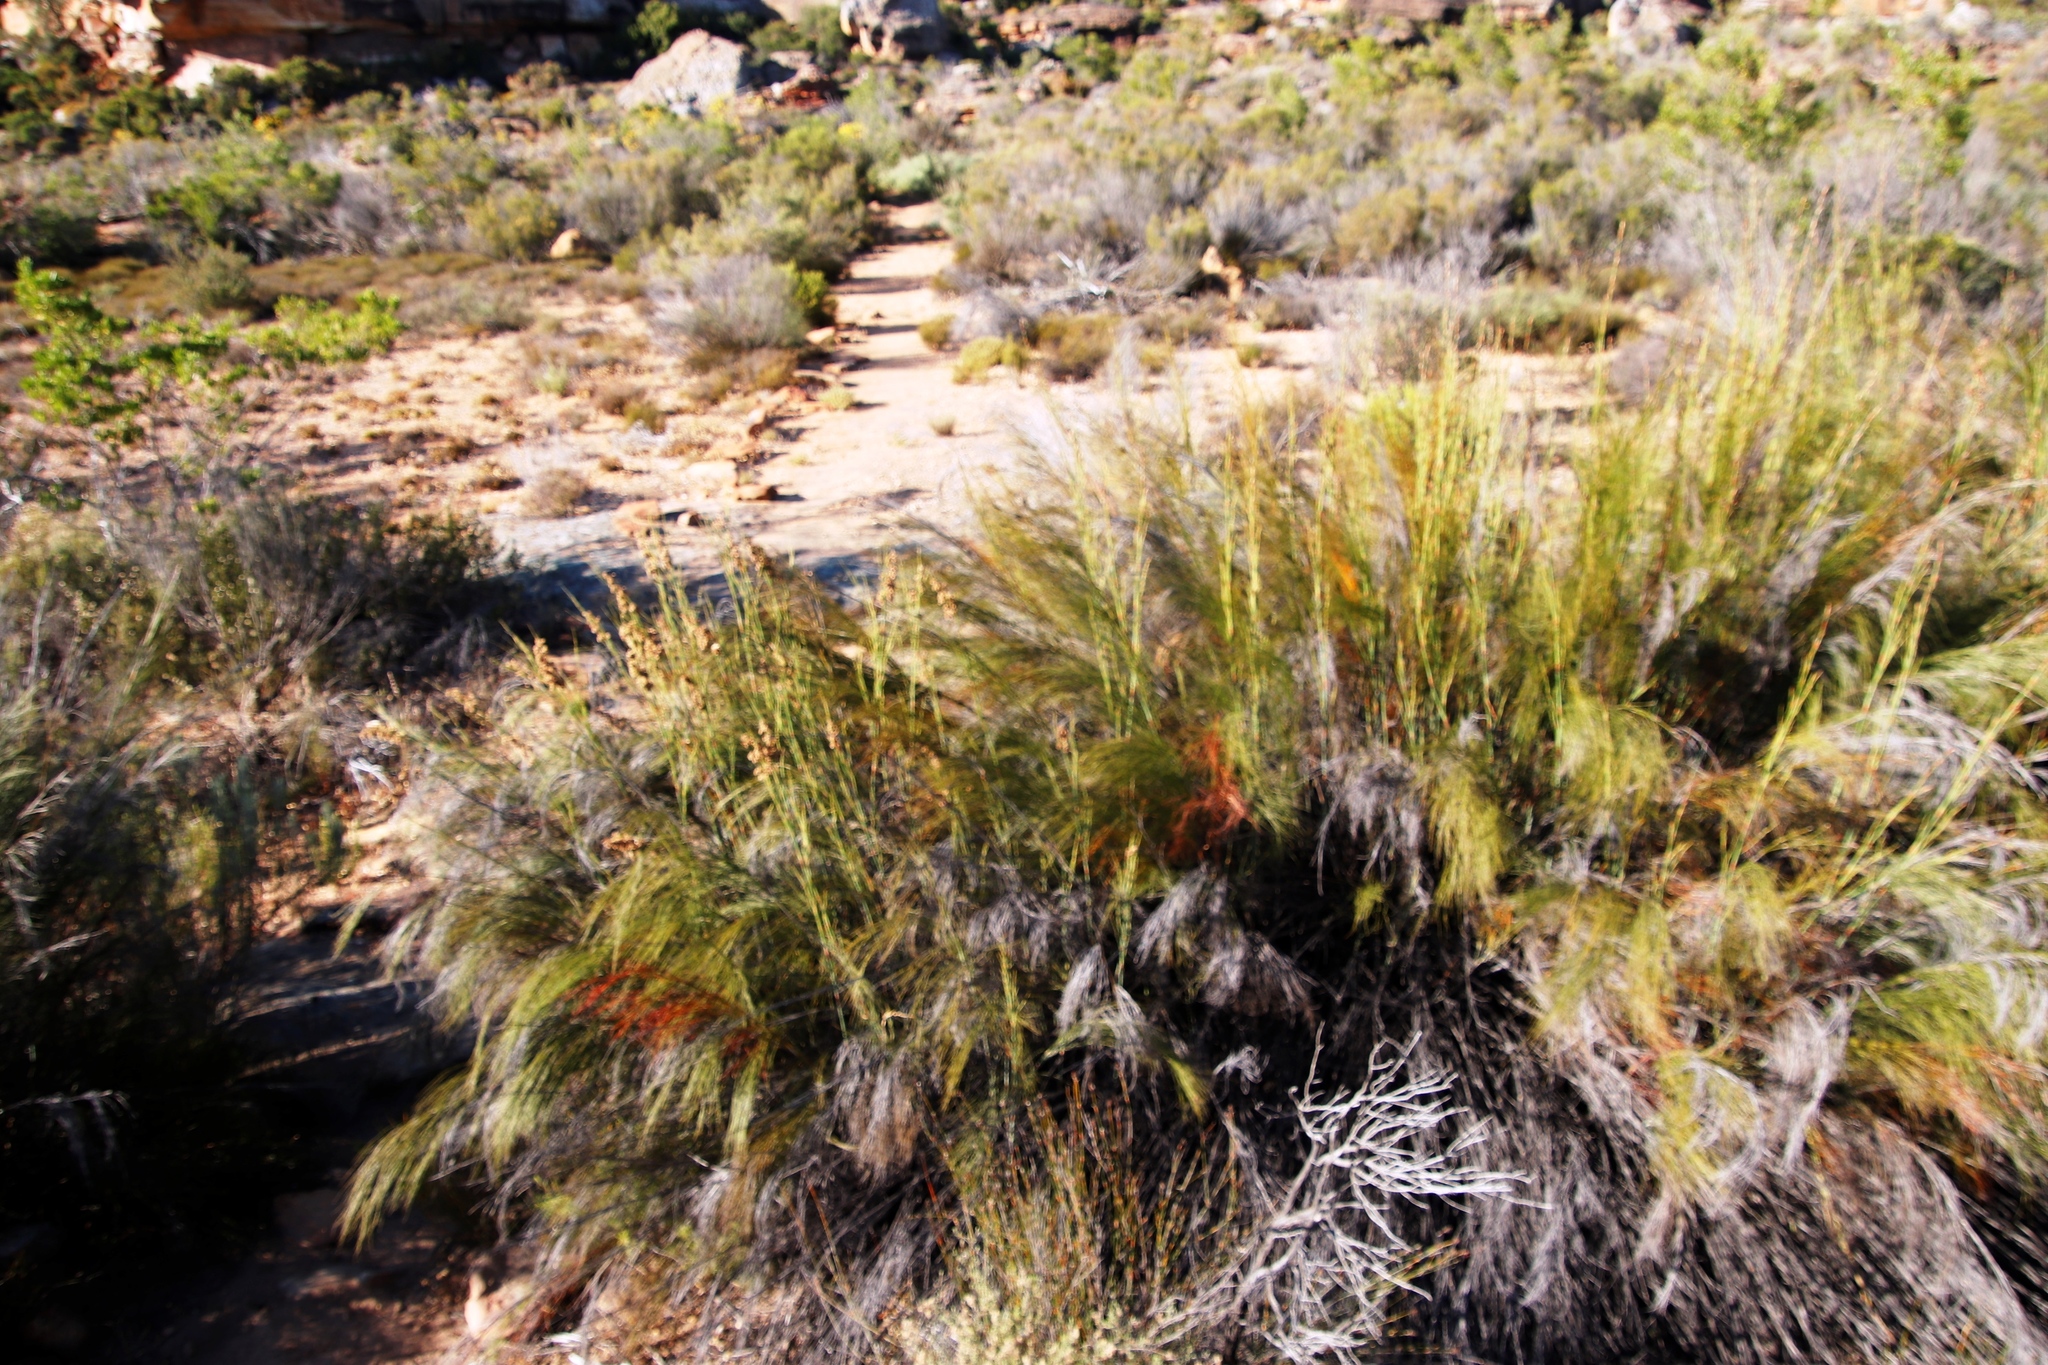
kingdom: Plantae
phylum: Tracheophyta
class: Liliopsida
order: Poales
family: Restionaceae
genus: Cannomois
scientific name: Cannomois robusta
